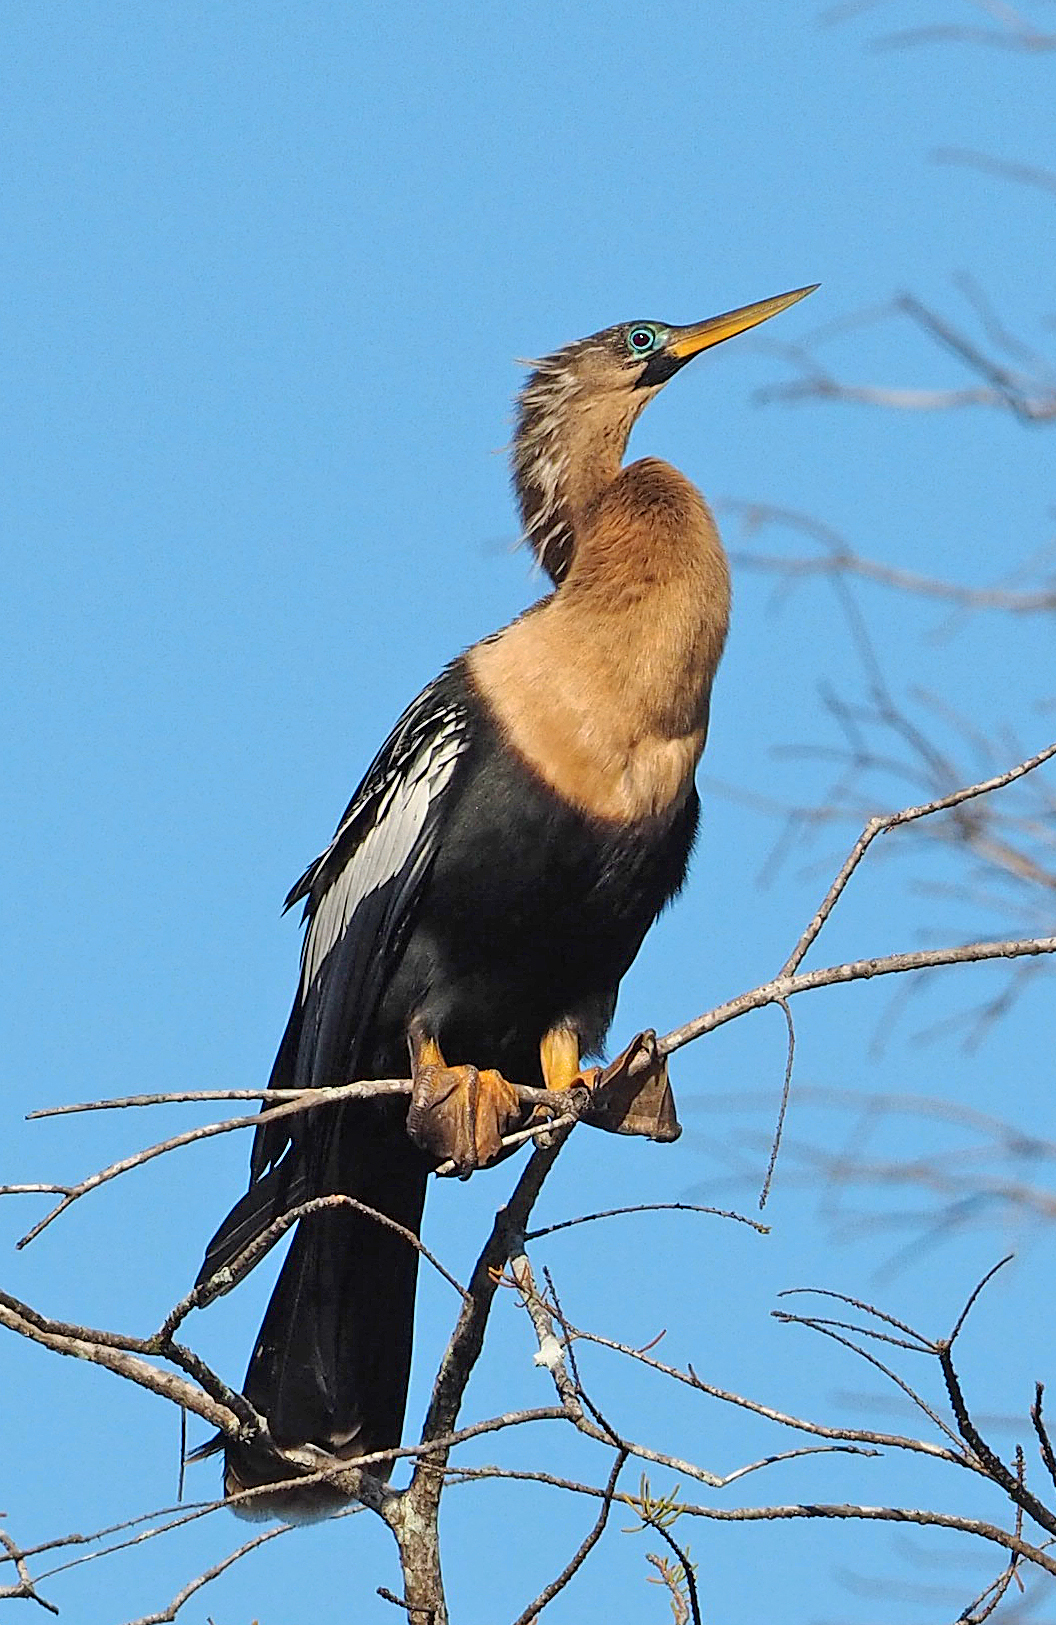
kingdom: Animalia
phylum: Chordata
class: Aves
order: Suliformes
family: Anhingidae
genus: Anhinga
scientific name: Anhinga anhinga
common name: Anhinga
